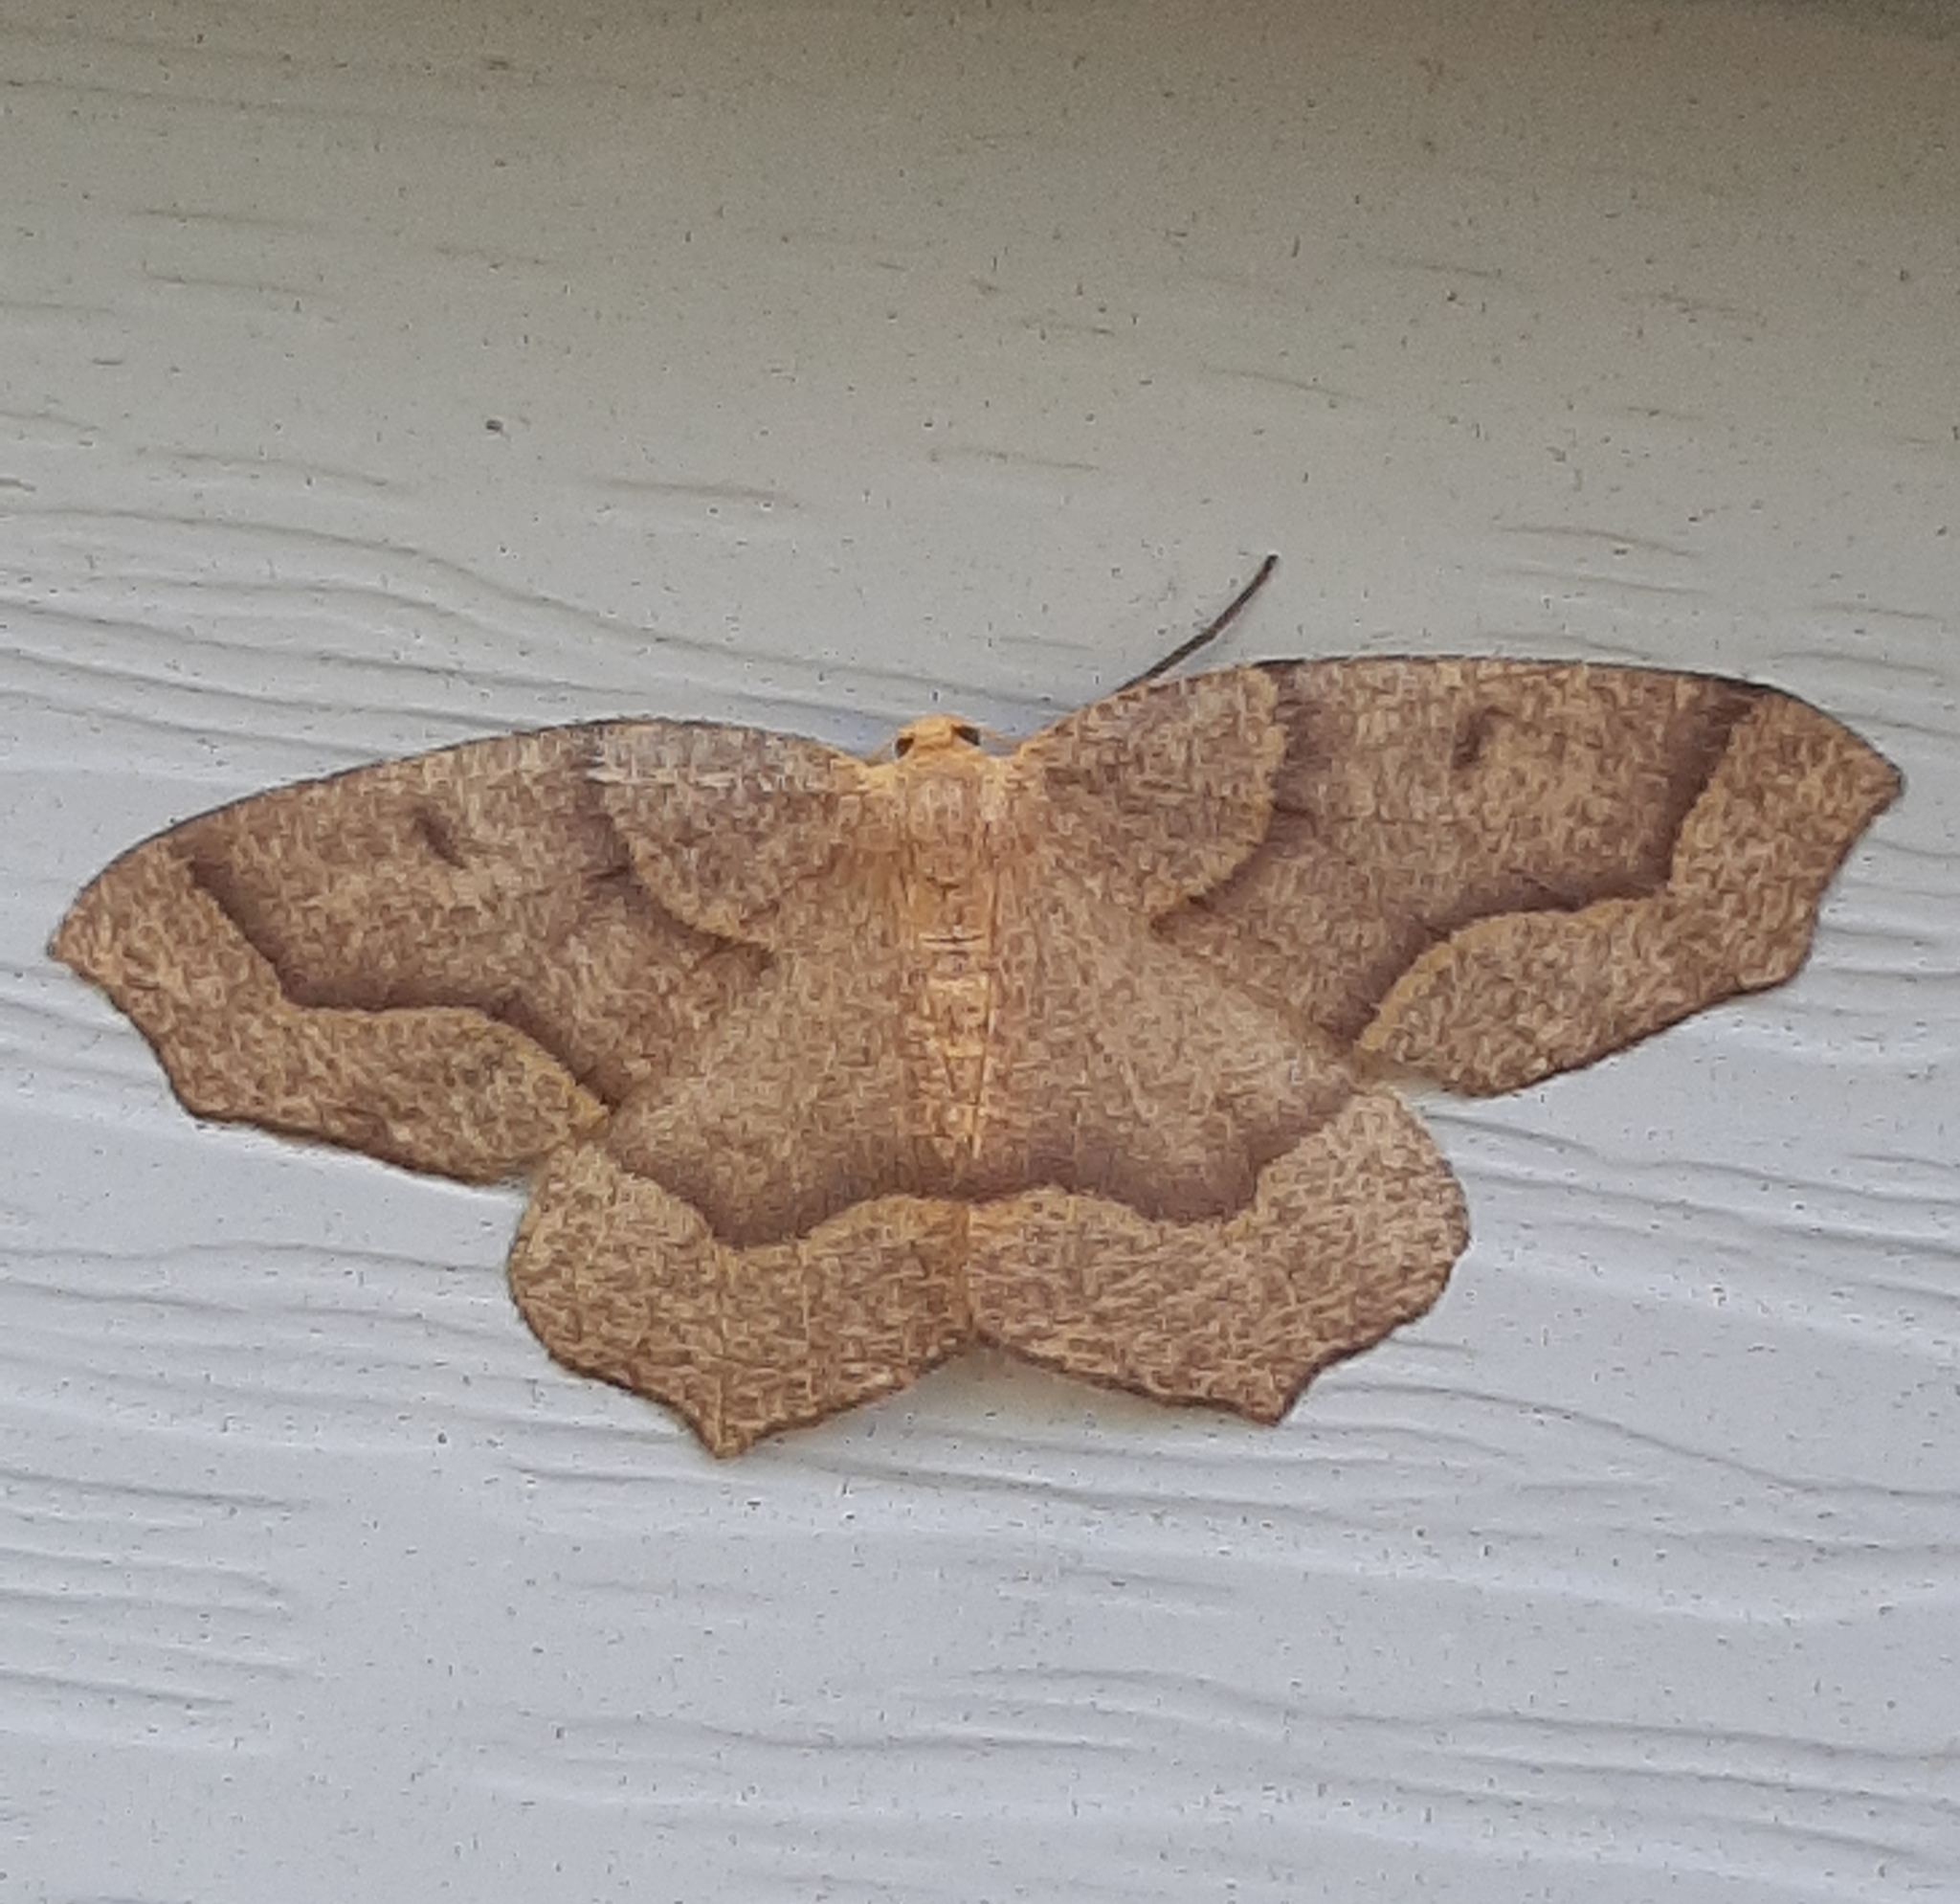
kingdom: Animalia
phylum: Arthropoda
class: Insecta
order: Lepidoptera
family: Geometridae
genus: Lambdina
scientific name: Lambdina fiscellaria
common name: Hemlock looper
